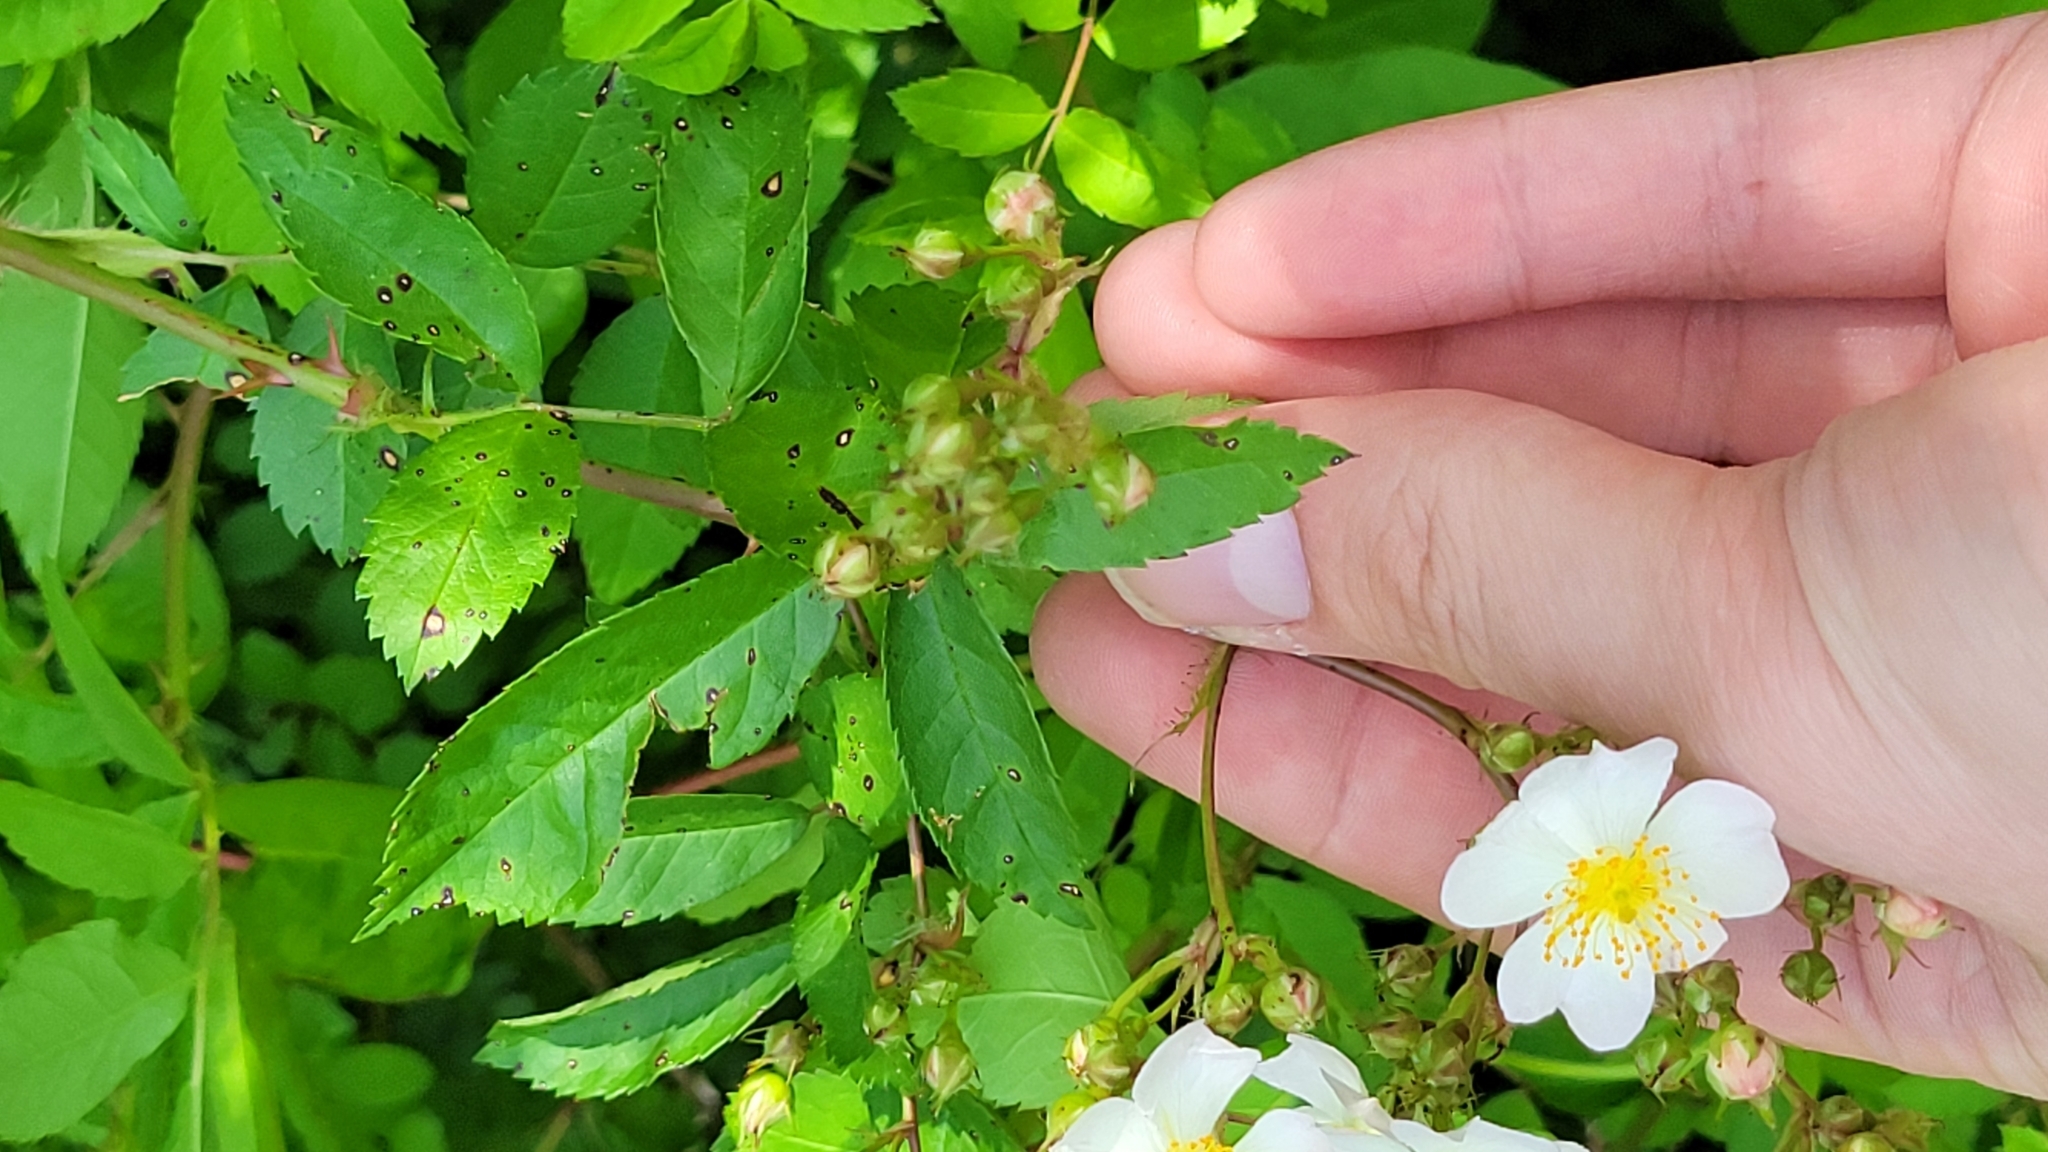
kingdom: Plantae
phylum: Tracheophyta
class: Magnoliopsida
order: Rosales
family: Rosaceae
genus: Rosa
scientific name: Rosa multiflora
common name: Multiflora rose
